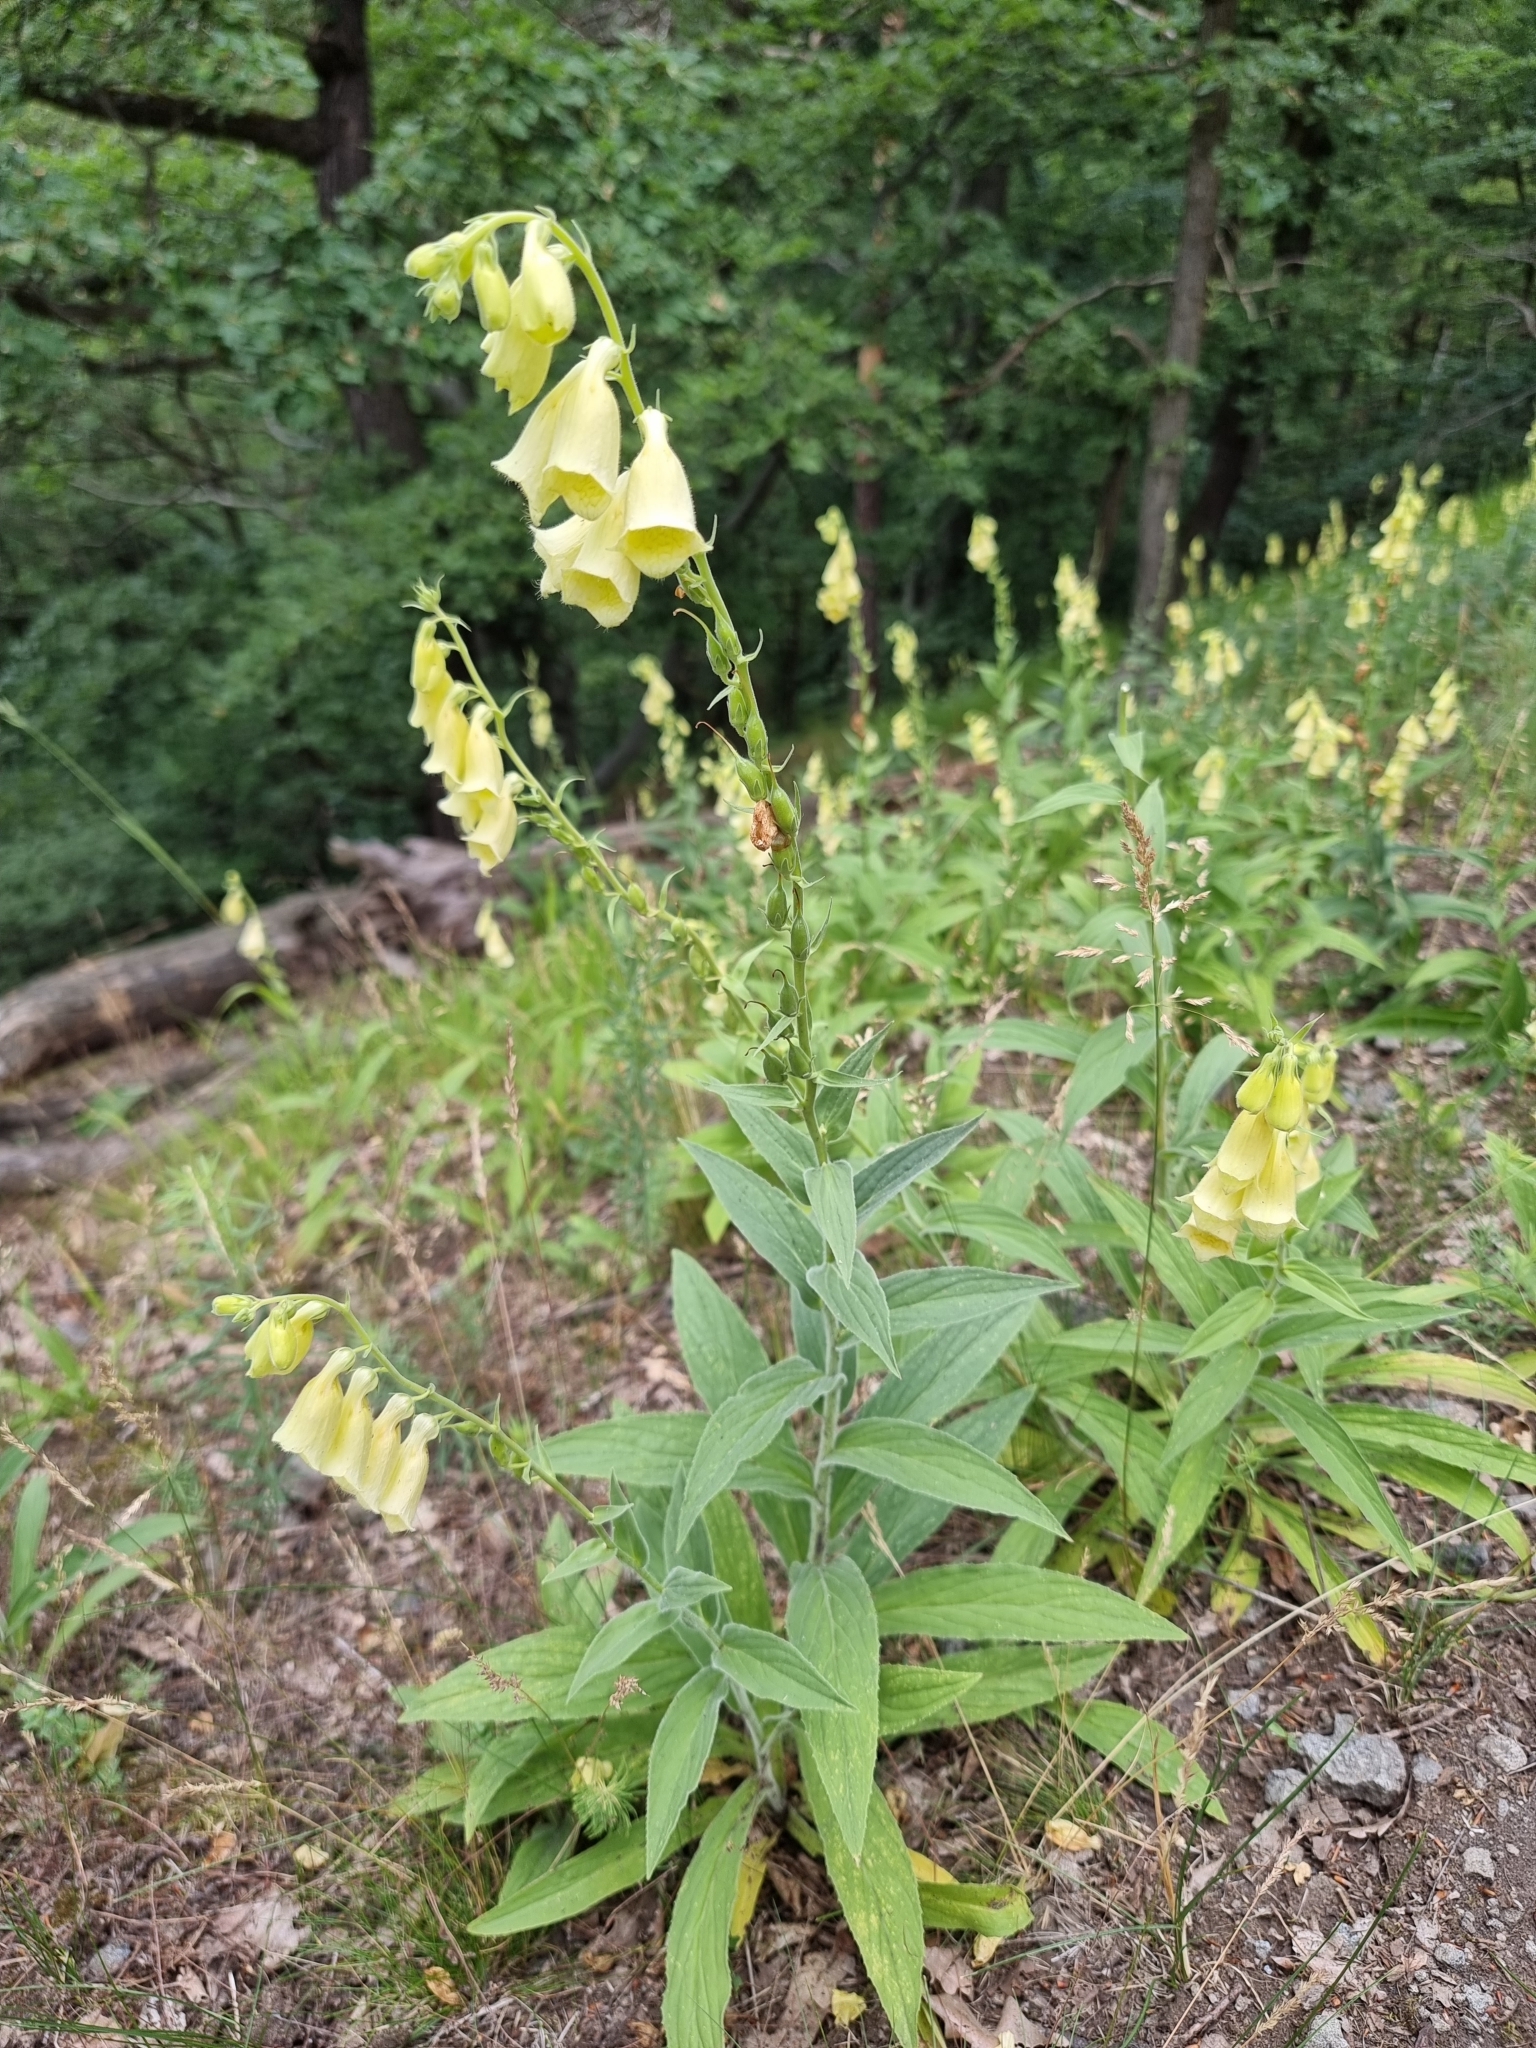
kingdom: Plantae
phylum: Tracheophyta
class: Magnoliopsida
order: Lamiales
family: Plantaginaceae
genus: Digitalis
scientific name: Digitalis grandiflora
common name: Yellow foxglove
